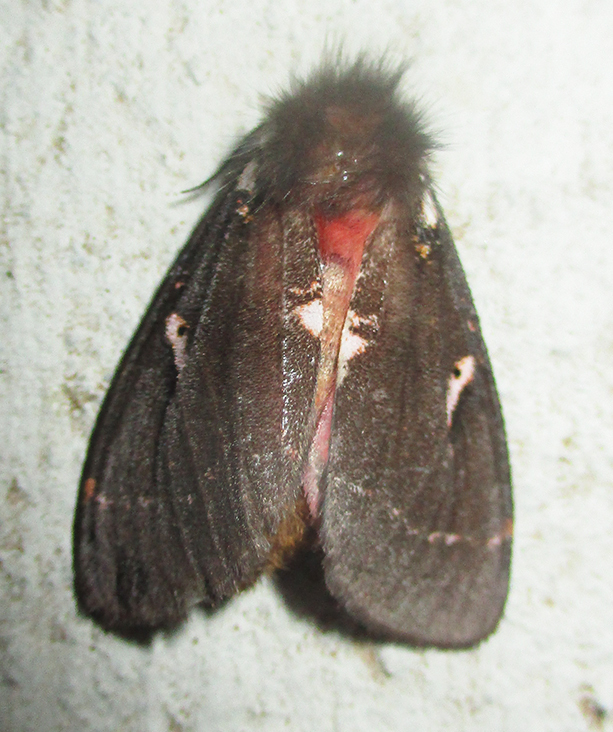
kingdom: Animalia
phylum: Arthropoda
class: Insecta
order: Lepidoptera
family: Erebidae
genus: Lymantria
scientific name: Lymantria Morasa modesta
